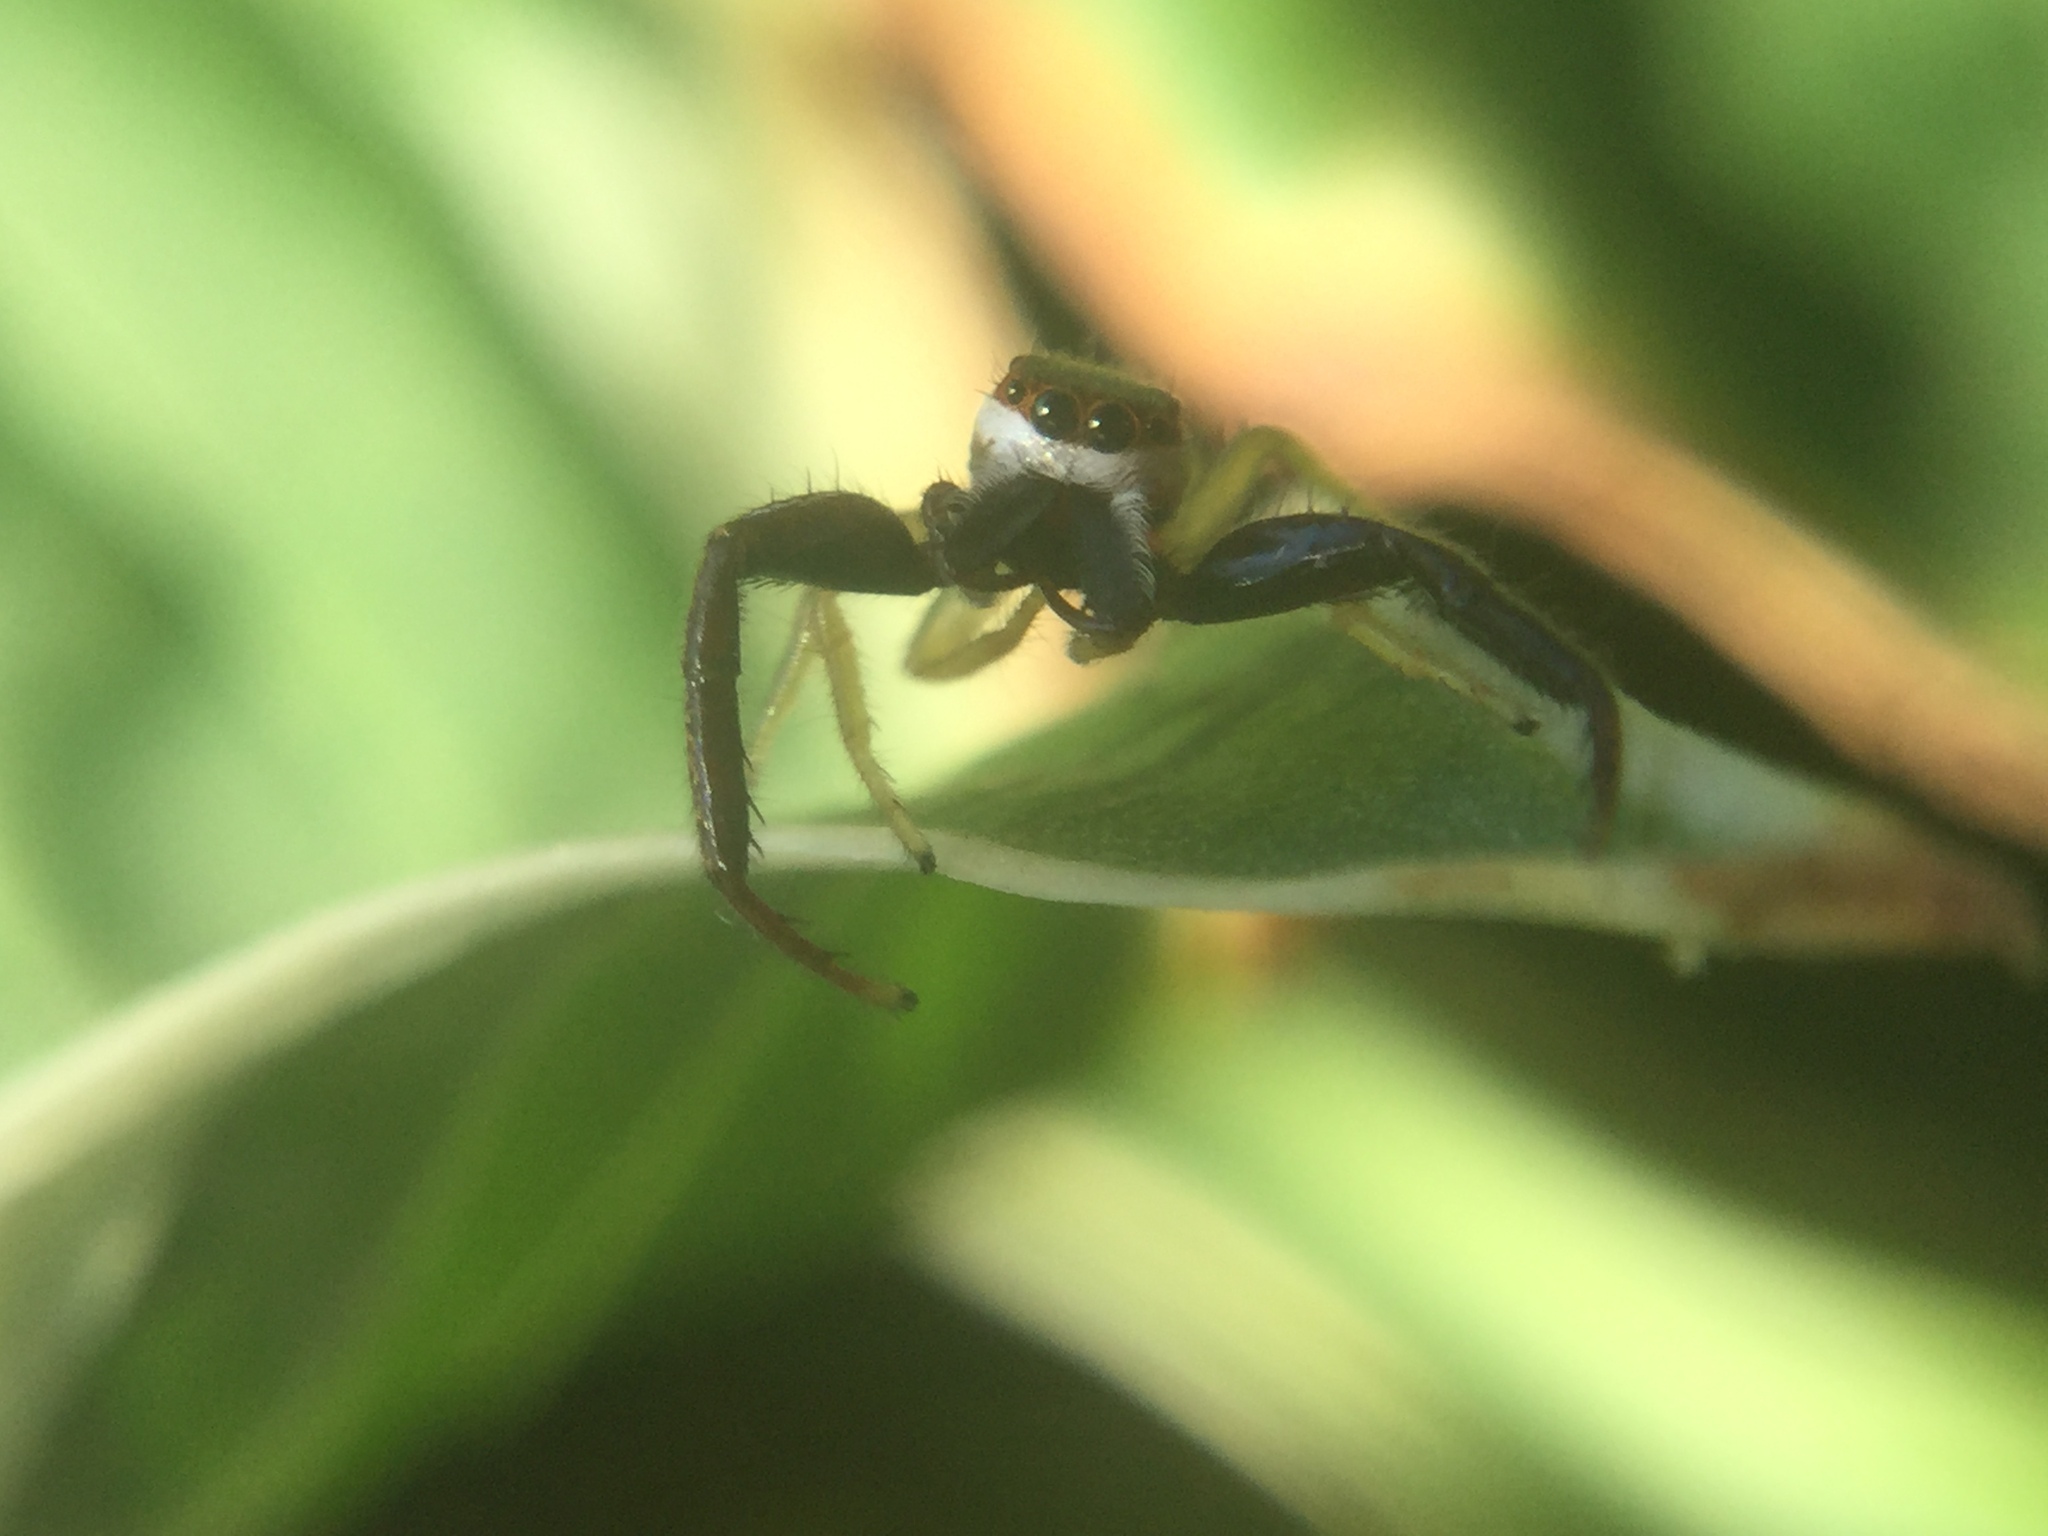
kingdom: Animalia
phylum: Arthropoda
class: Arachnida
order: Araneae
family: Salticidae
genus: Hentzia
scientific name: Hentzia palmarum
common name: Common hentz jumping spider
